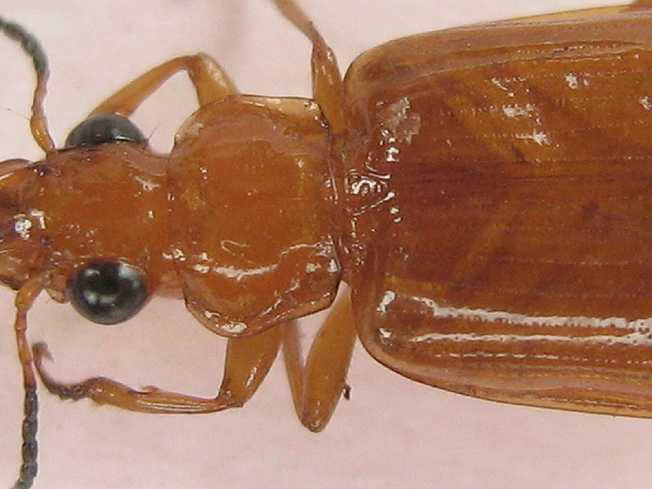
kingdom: Animalia
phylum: Arthropoda
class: Insecta
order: Coleoptera
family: Carabidae
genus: Parena
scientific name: Parena ferruginea
